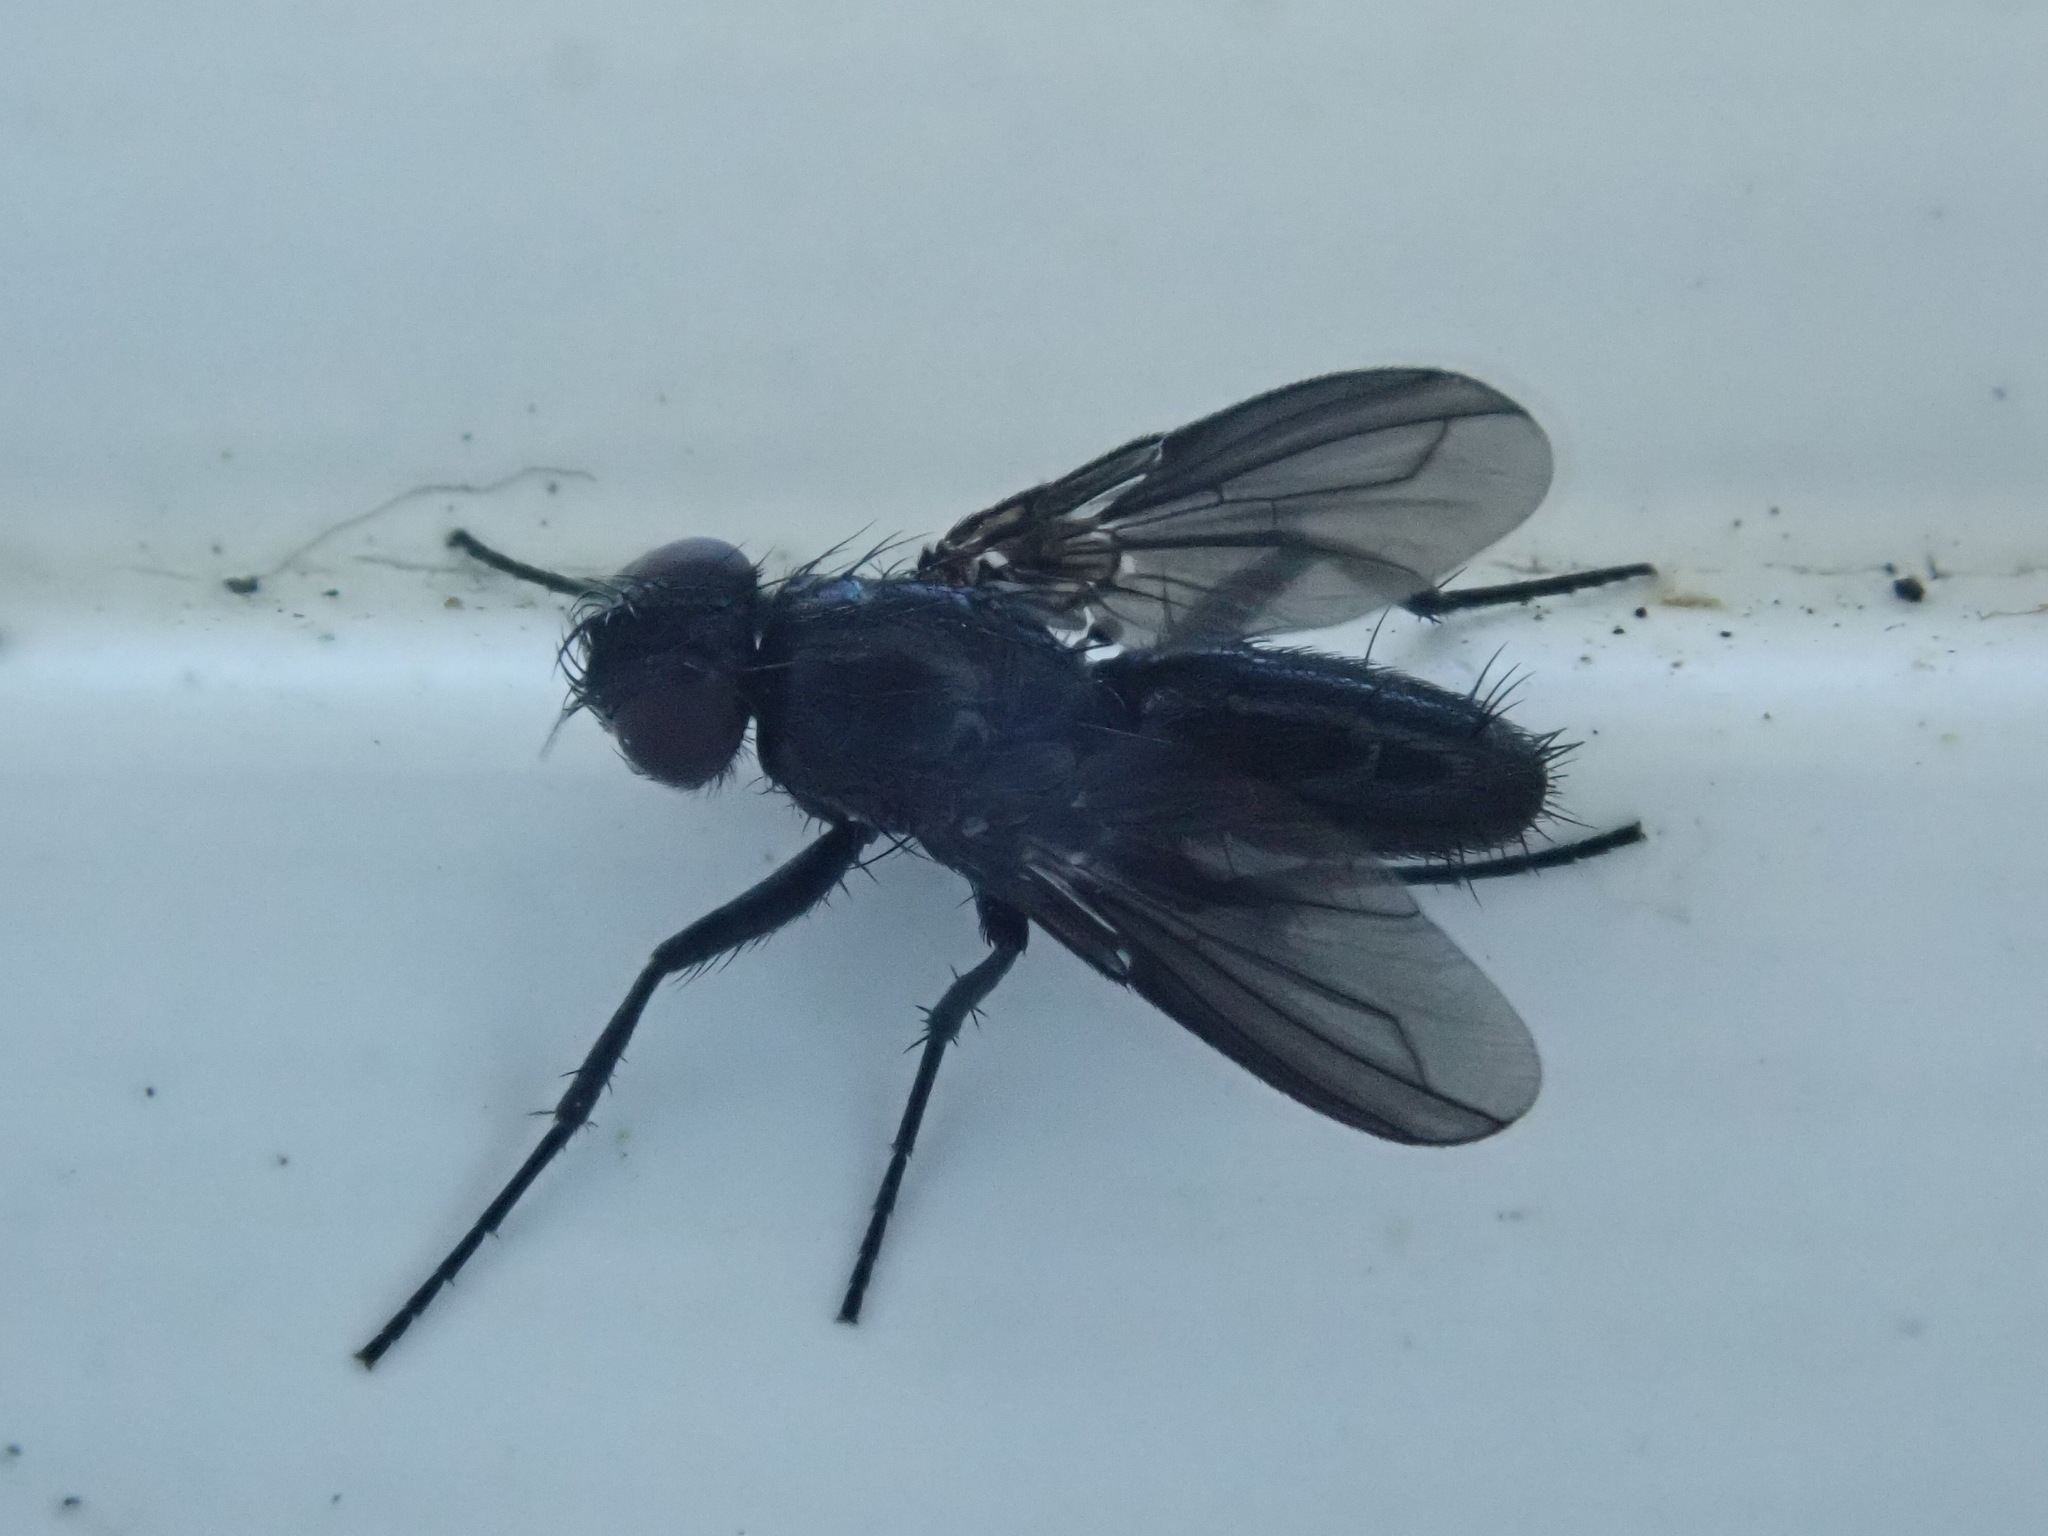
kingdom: Animalia
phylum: Arthropoda
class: Insecta
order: Diptera
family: Calliphoridae
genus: Melanophora
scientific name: Melanophora roralis
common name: Smoky-winged woodlouse-fly
